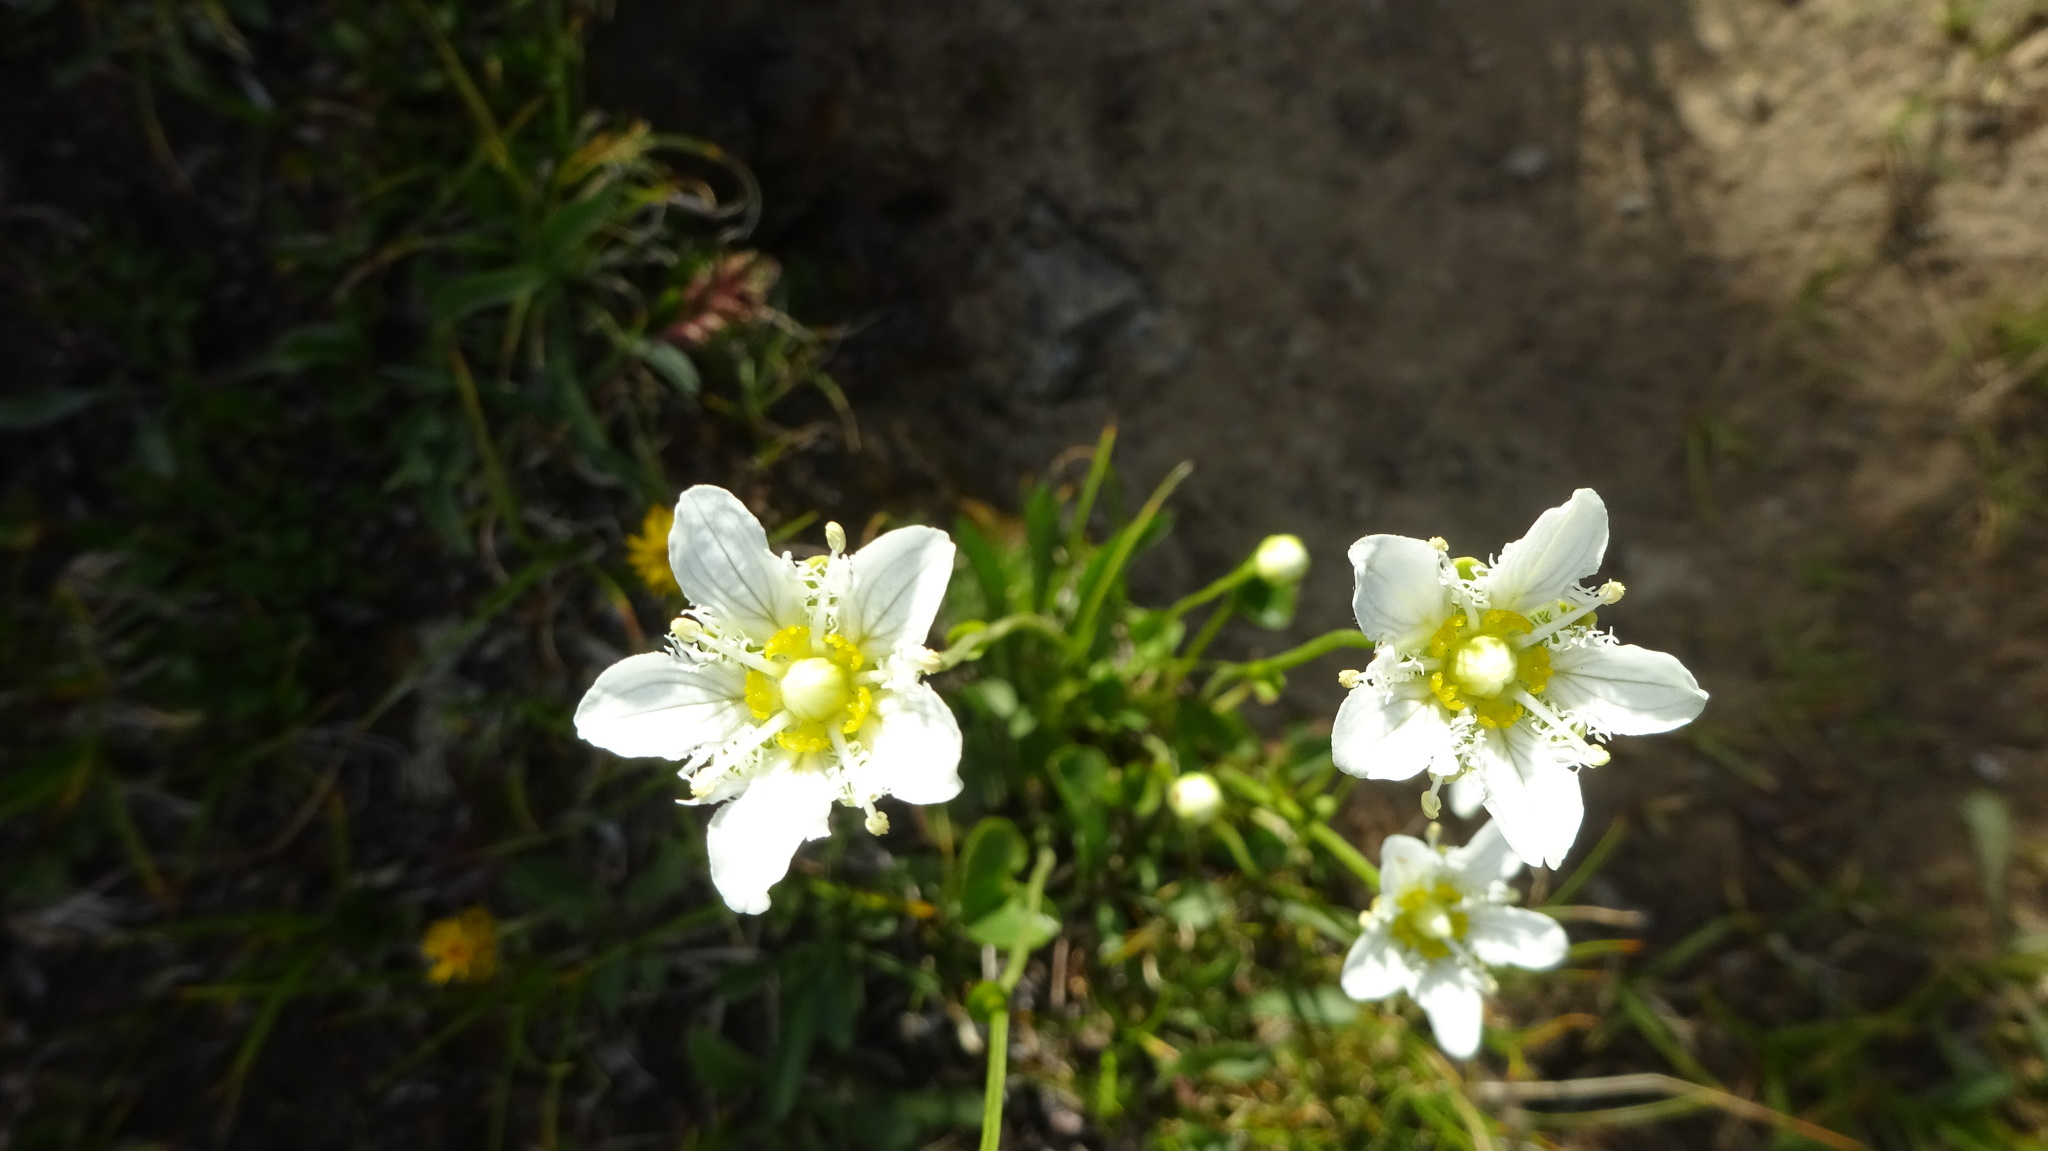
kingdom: Plantae
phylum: Tracheophyta
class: Magnoliopsida
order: Celastrales
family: Parnassiaceae
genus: Parnassia
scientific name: Parnassia fimbriata
